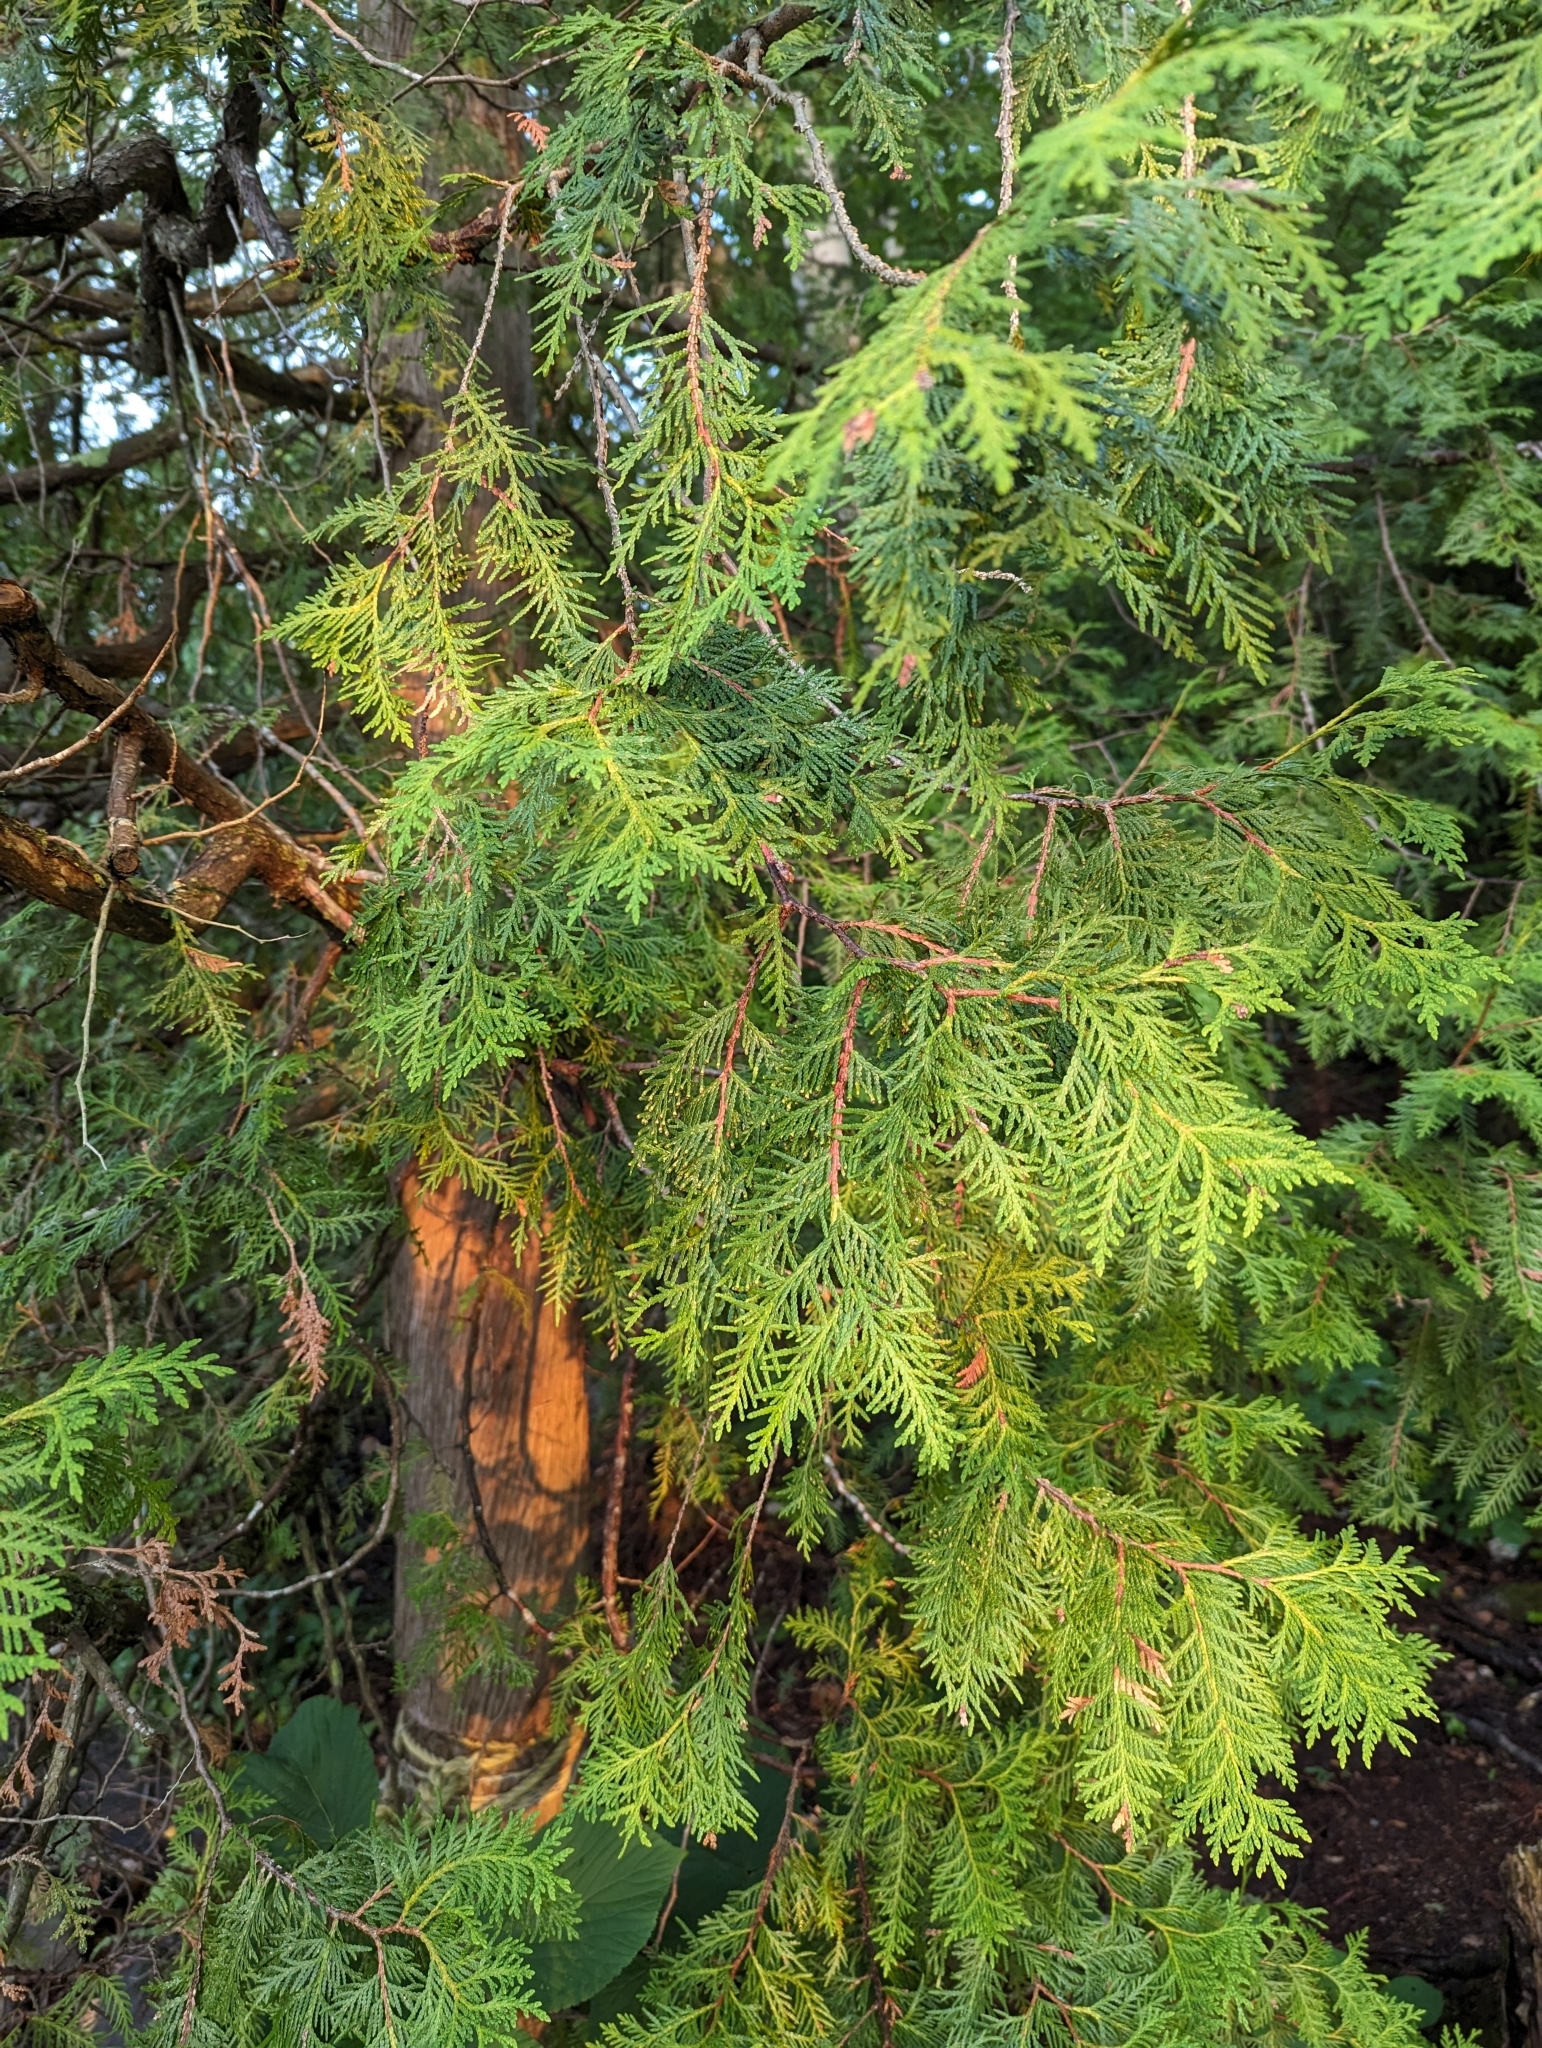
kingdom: Plantae
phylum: Tracheophyta
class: Pinopsida
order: Pinales
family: Cupressaceae
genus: Thuja
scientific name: Thuja occidentalis
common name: Northern white-cedar
